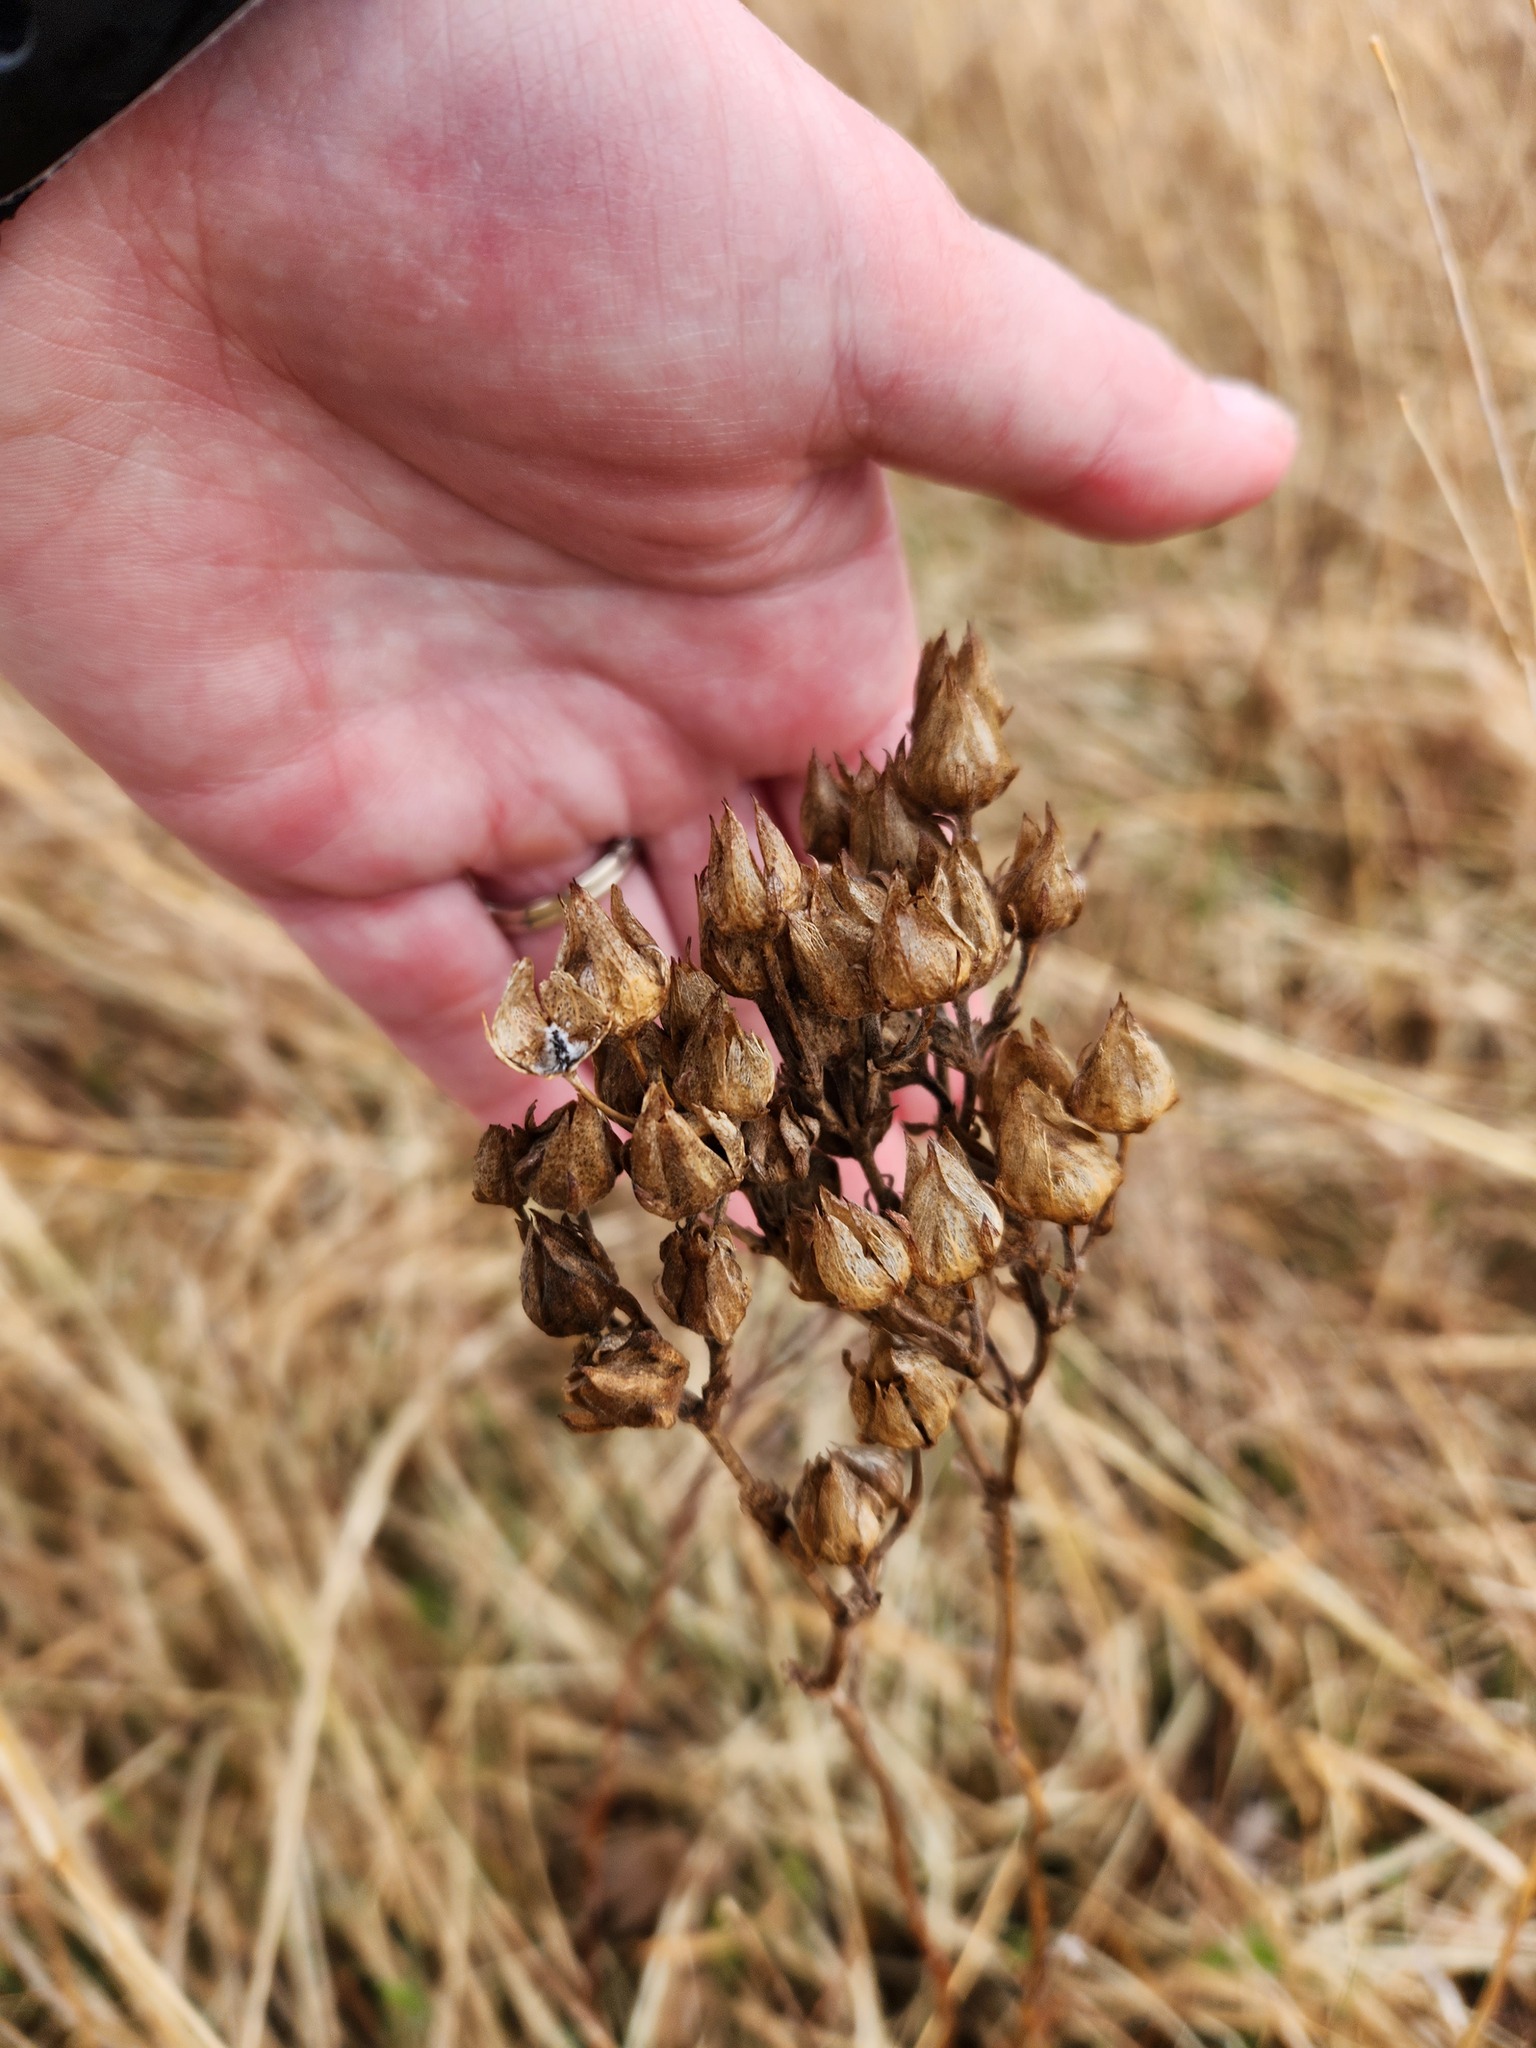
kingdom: Plantae
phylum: Tracheophyta
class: Magnoliopsida
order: Rosales
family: Rosaceae
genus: Drymocallis
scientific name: Drymocallis arguta
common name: Tall cinquefoil
